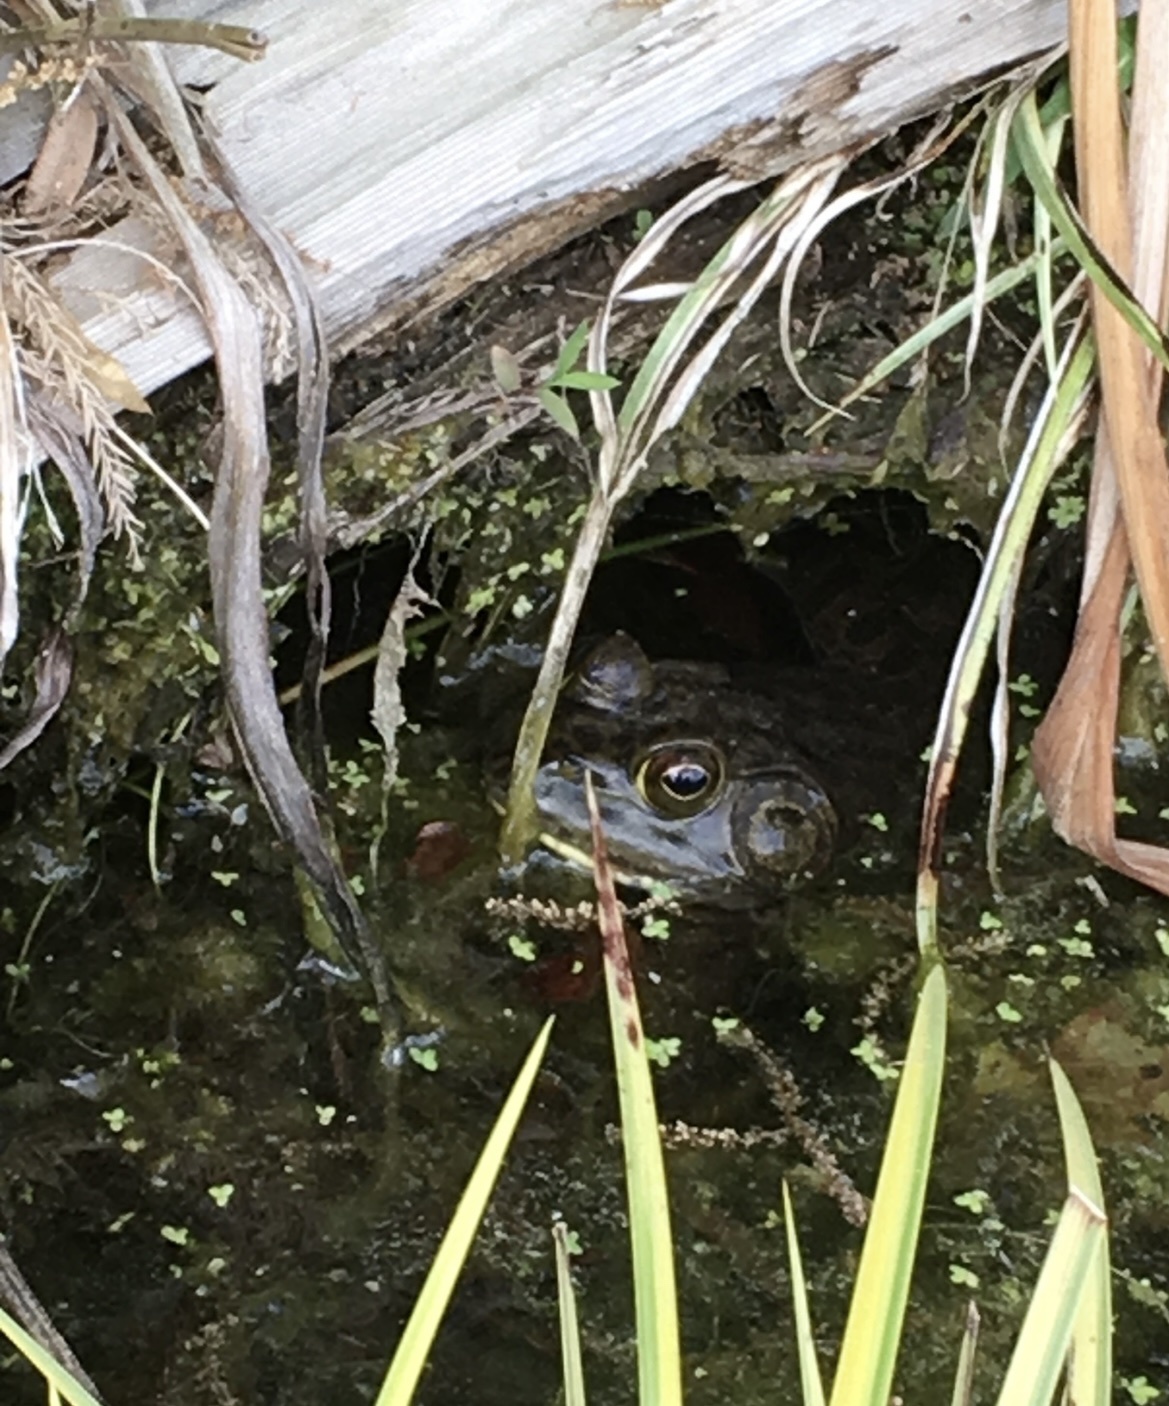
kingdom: Animalia
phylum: Chordata
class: Amphibia
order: Anura
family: Ranidae
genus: Lithobates
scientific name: Lithobates catesbeianus
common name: American bullfrog
